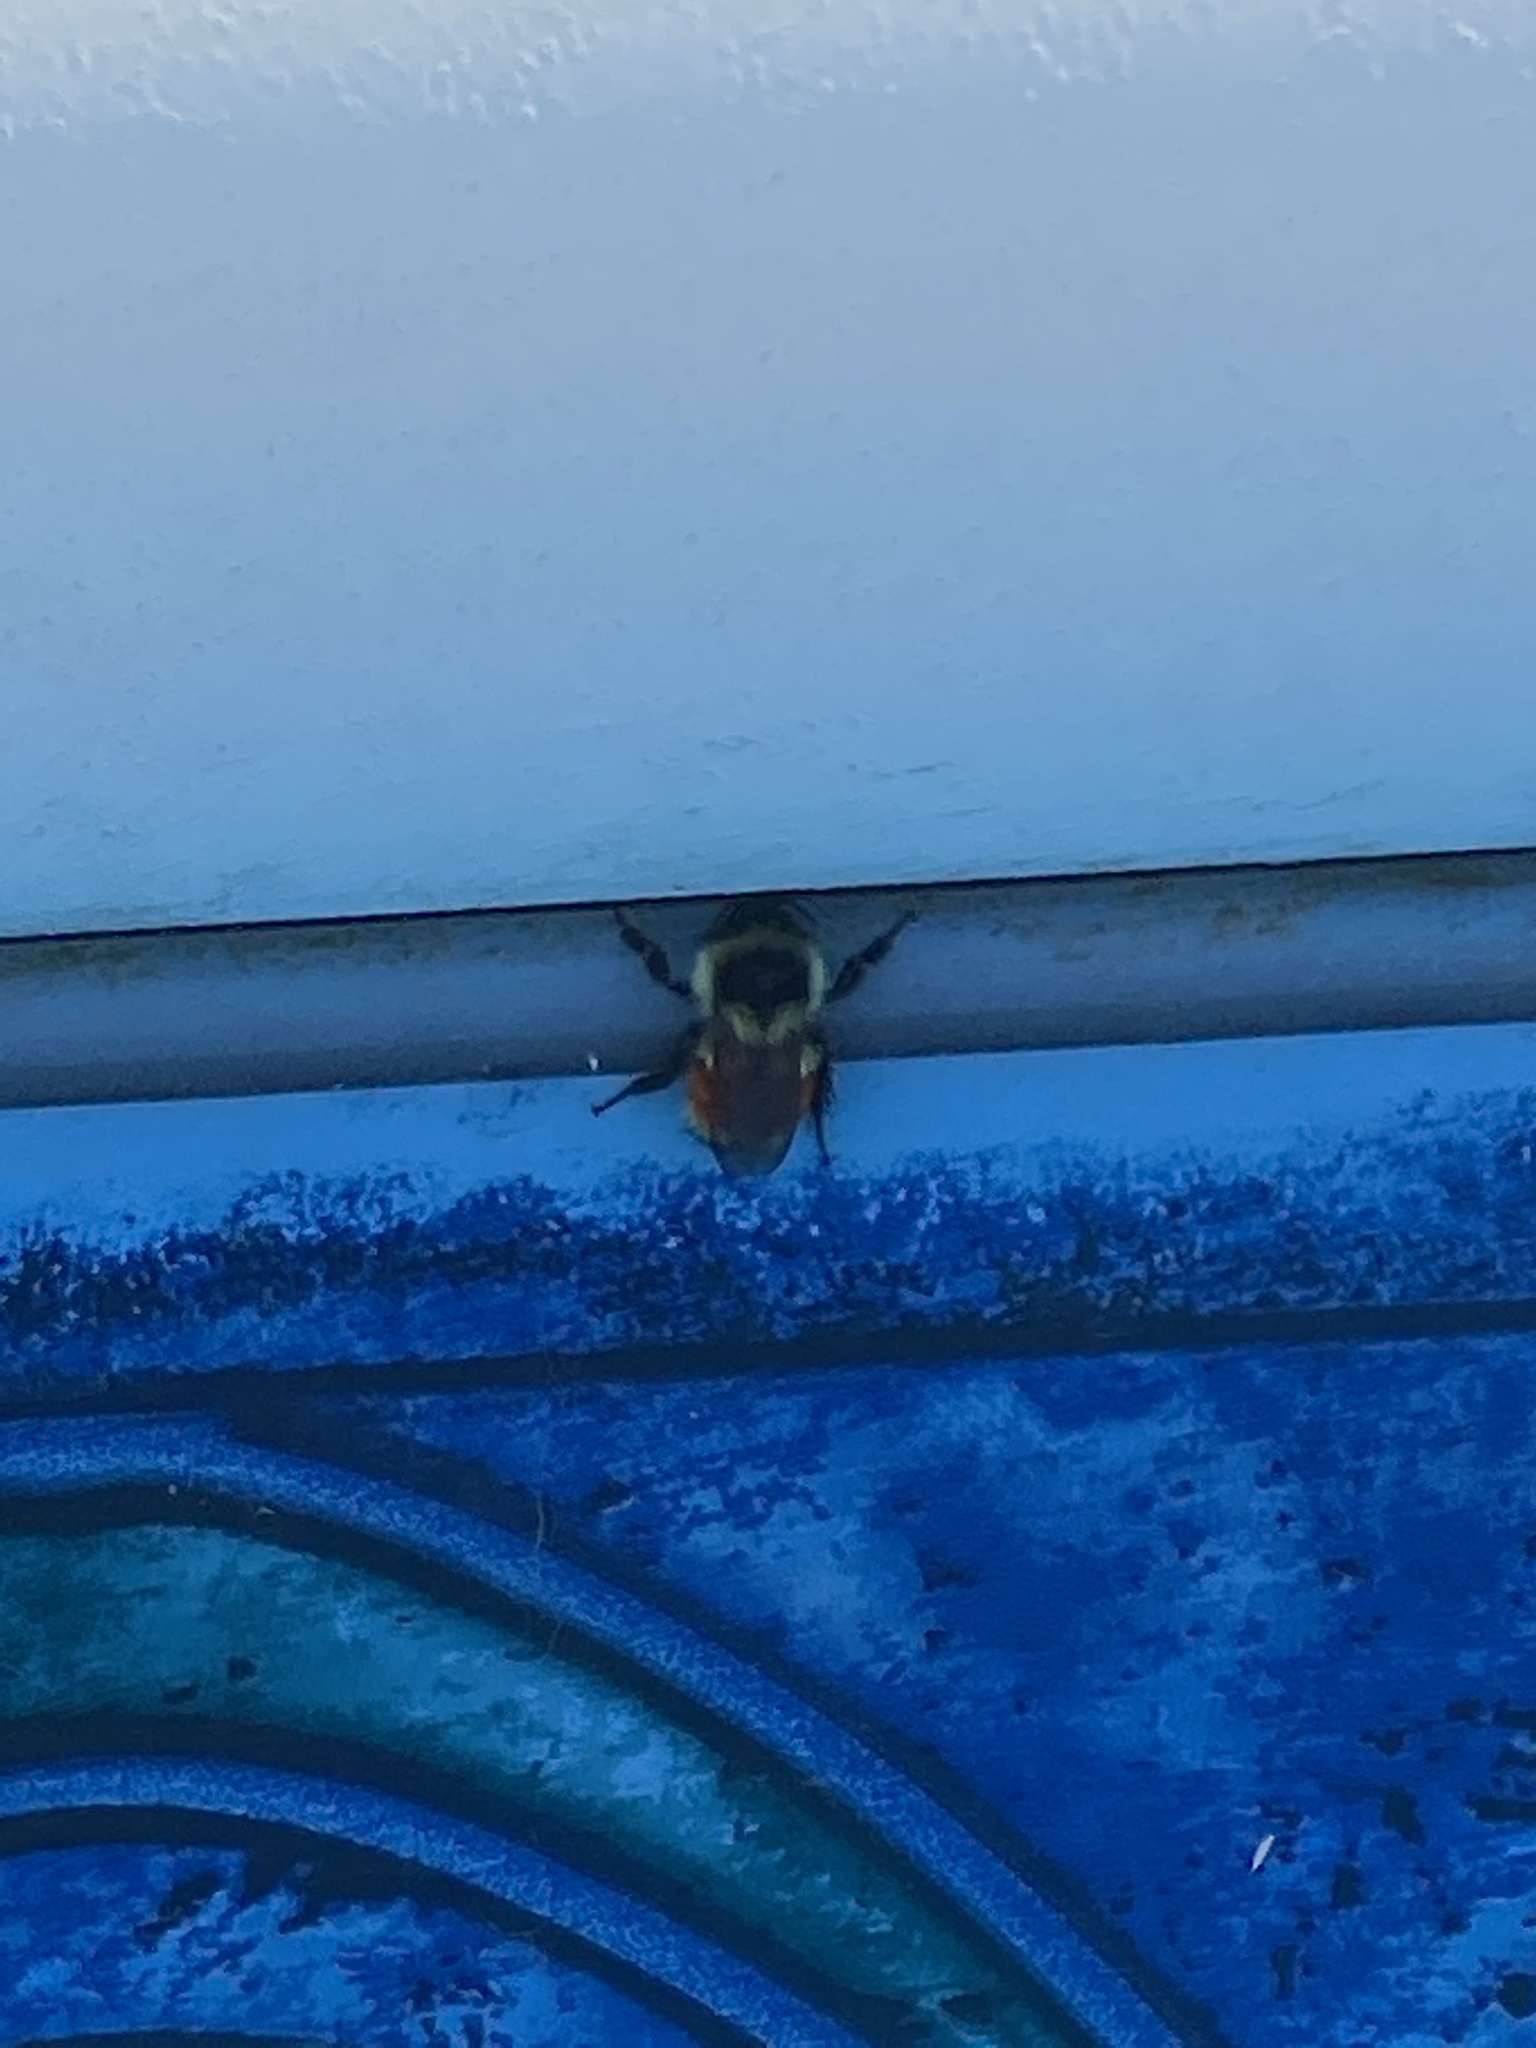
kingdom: Animalia
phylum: Arthropoda
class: Insecta
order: Hymenoptera
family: Apidae
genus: Bombus
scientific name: Bombus ternarius
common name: Tri-colored bumble bee
